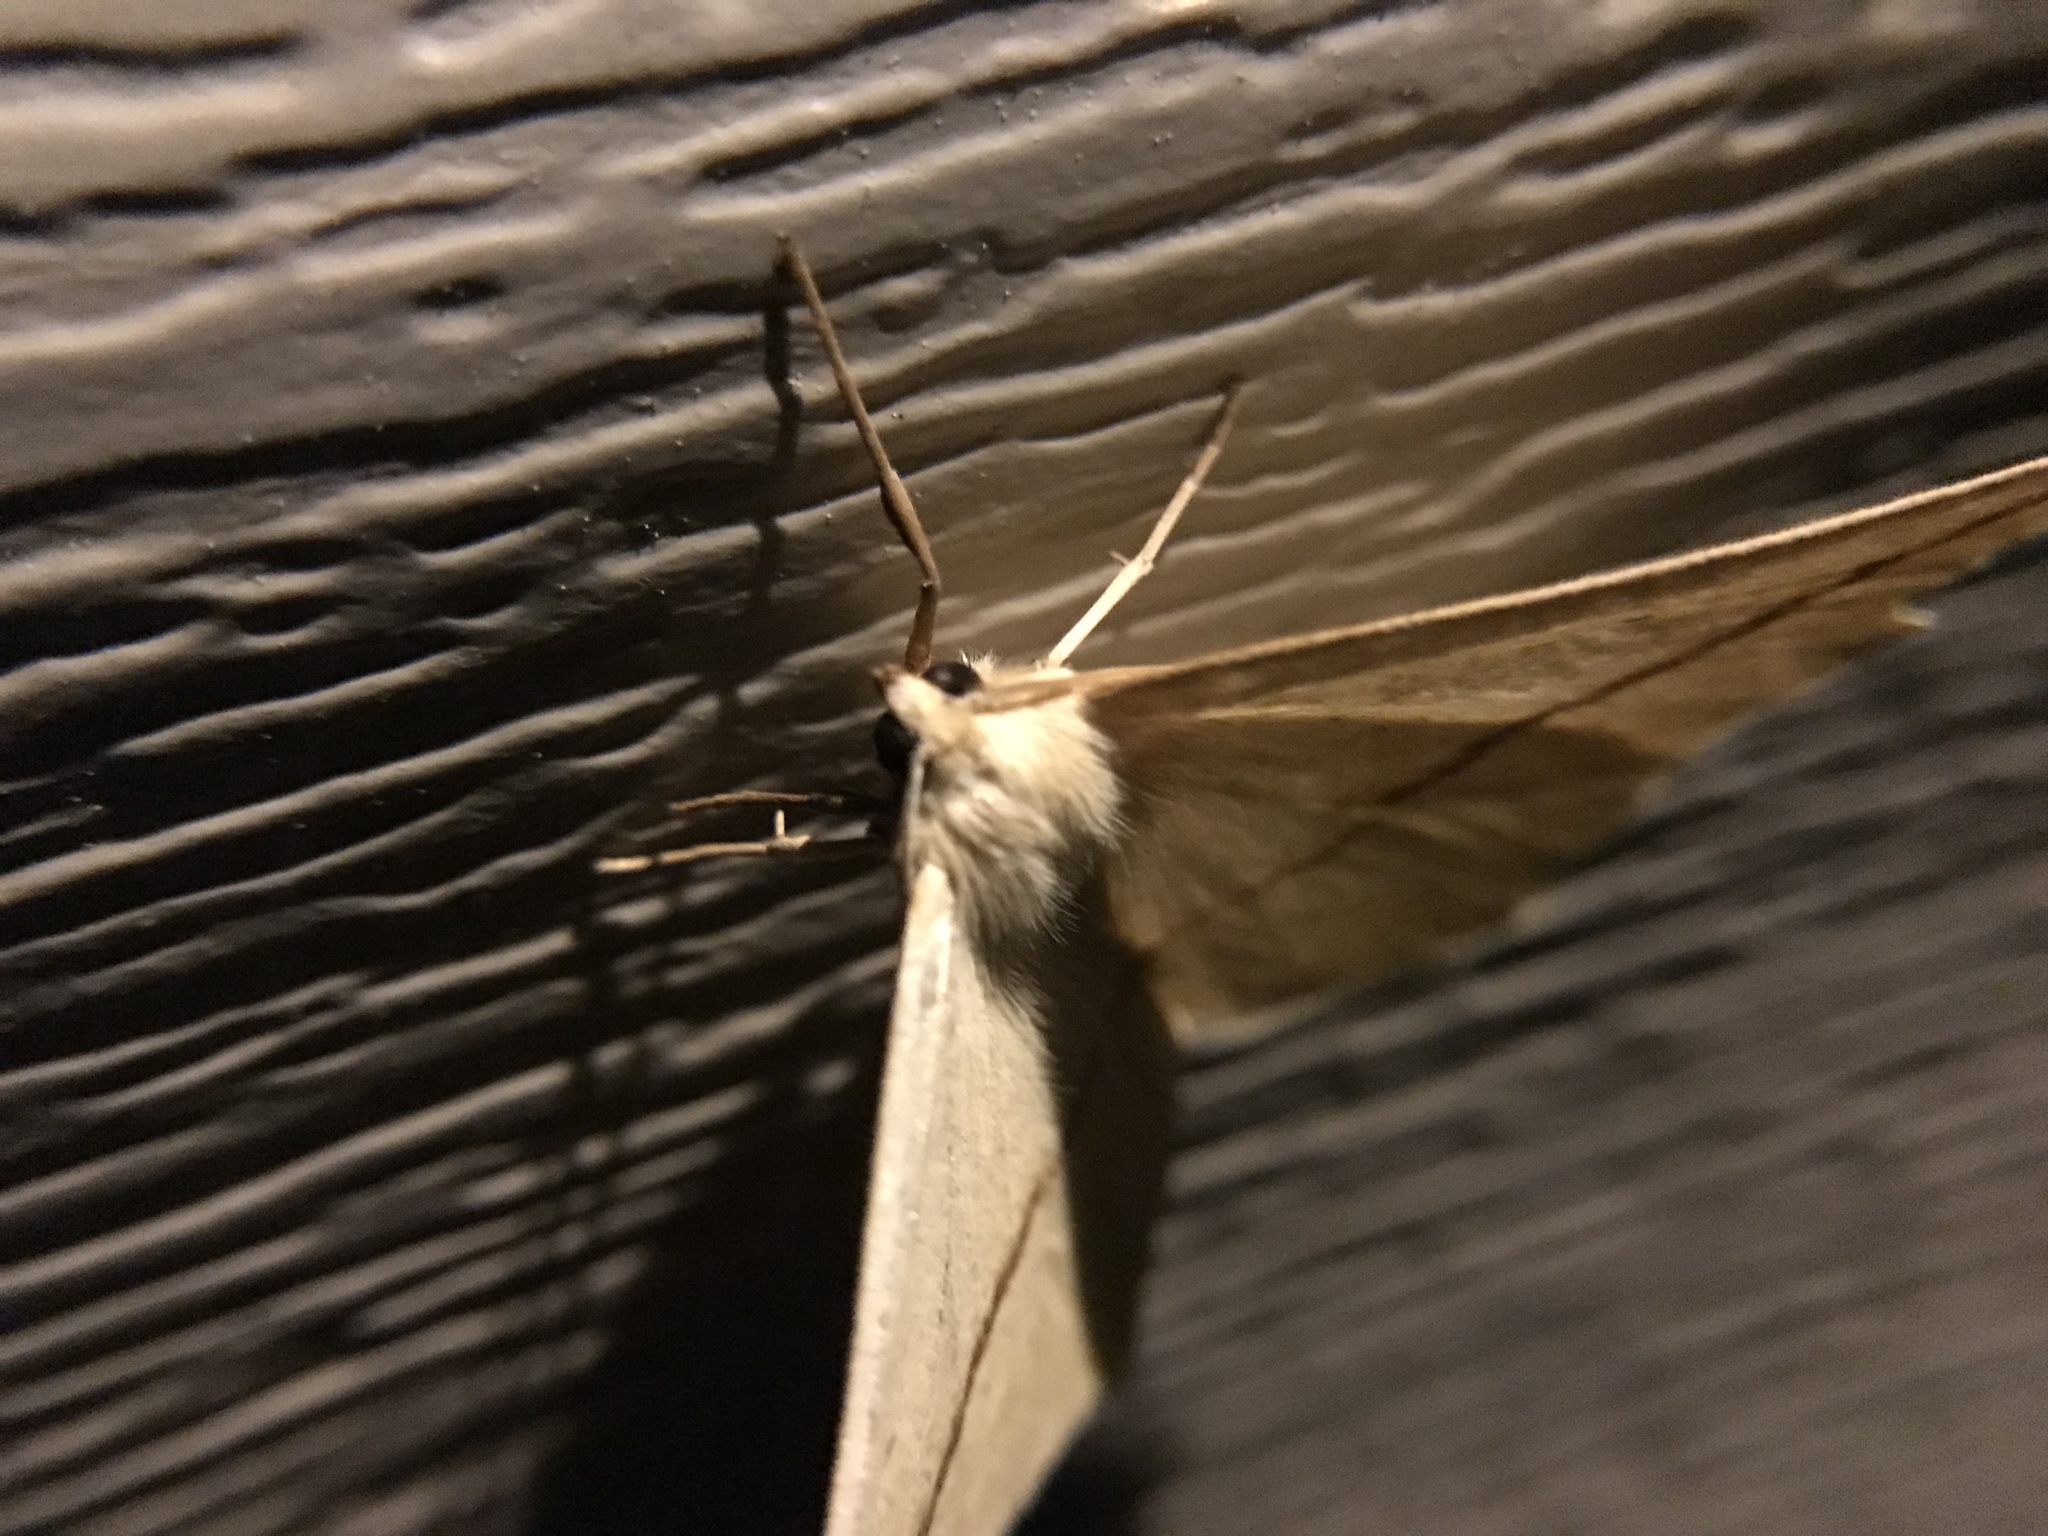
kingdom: Animalia
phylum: Arthropoda
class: Insecta
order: Lepidoptera
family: Geometridae
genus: Tetracis
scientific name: Tetracis crocallata
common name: Yellow slant-line
